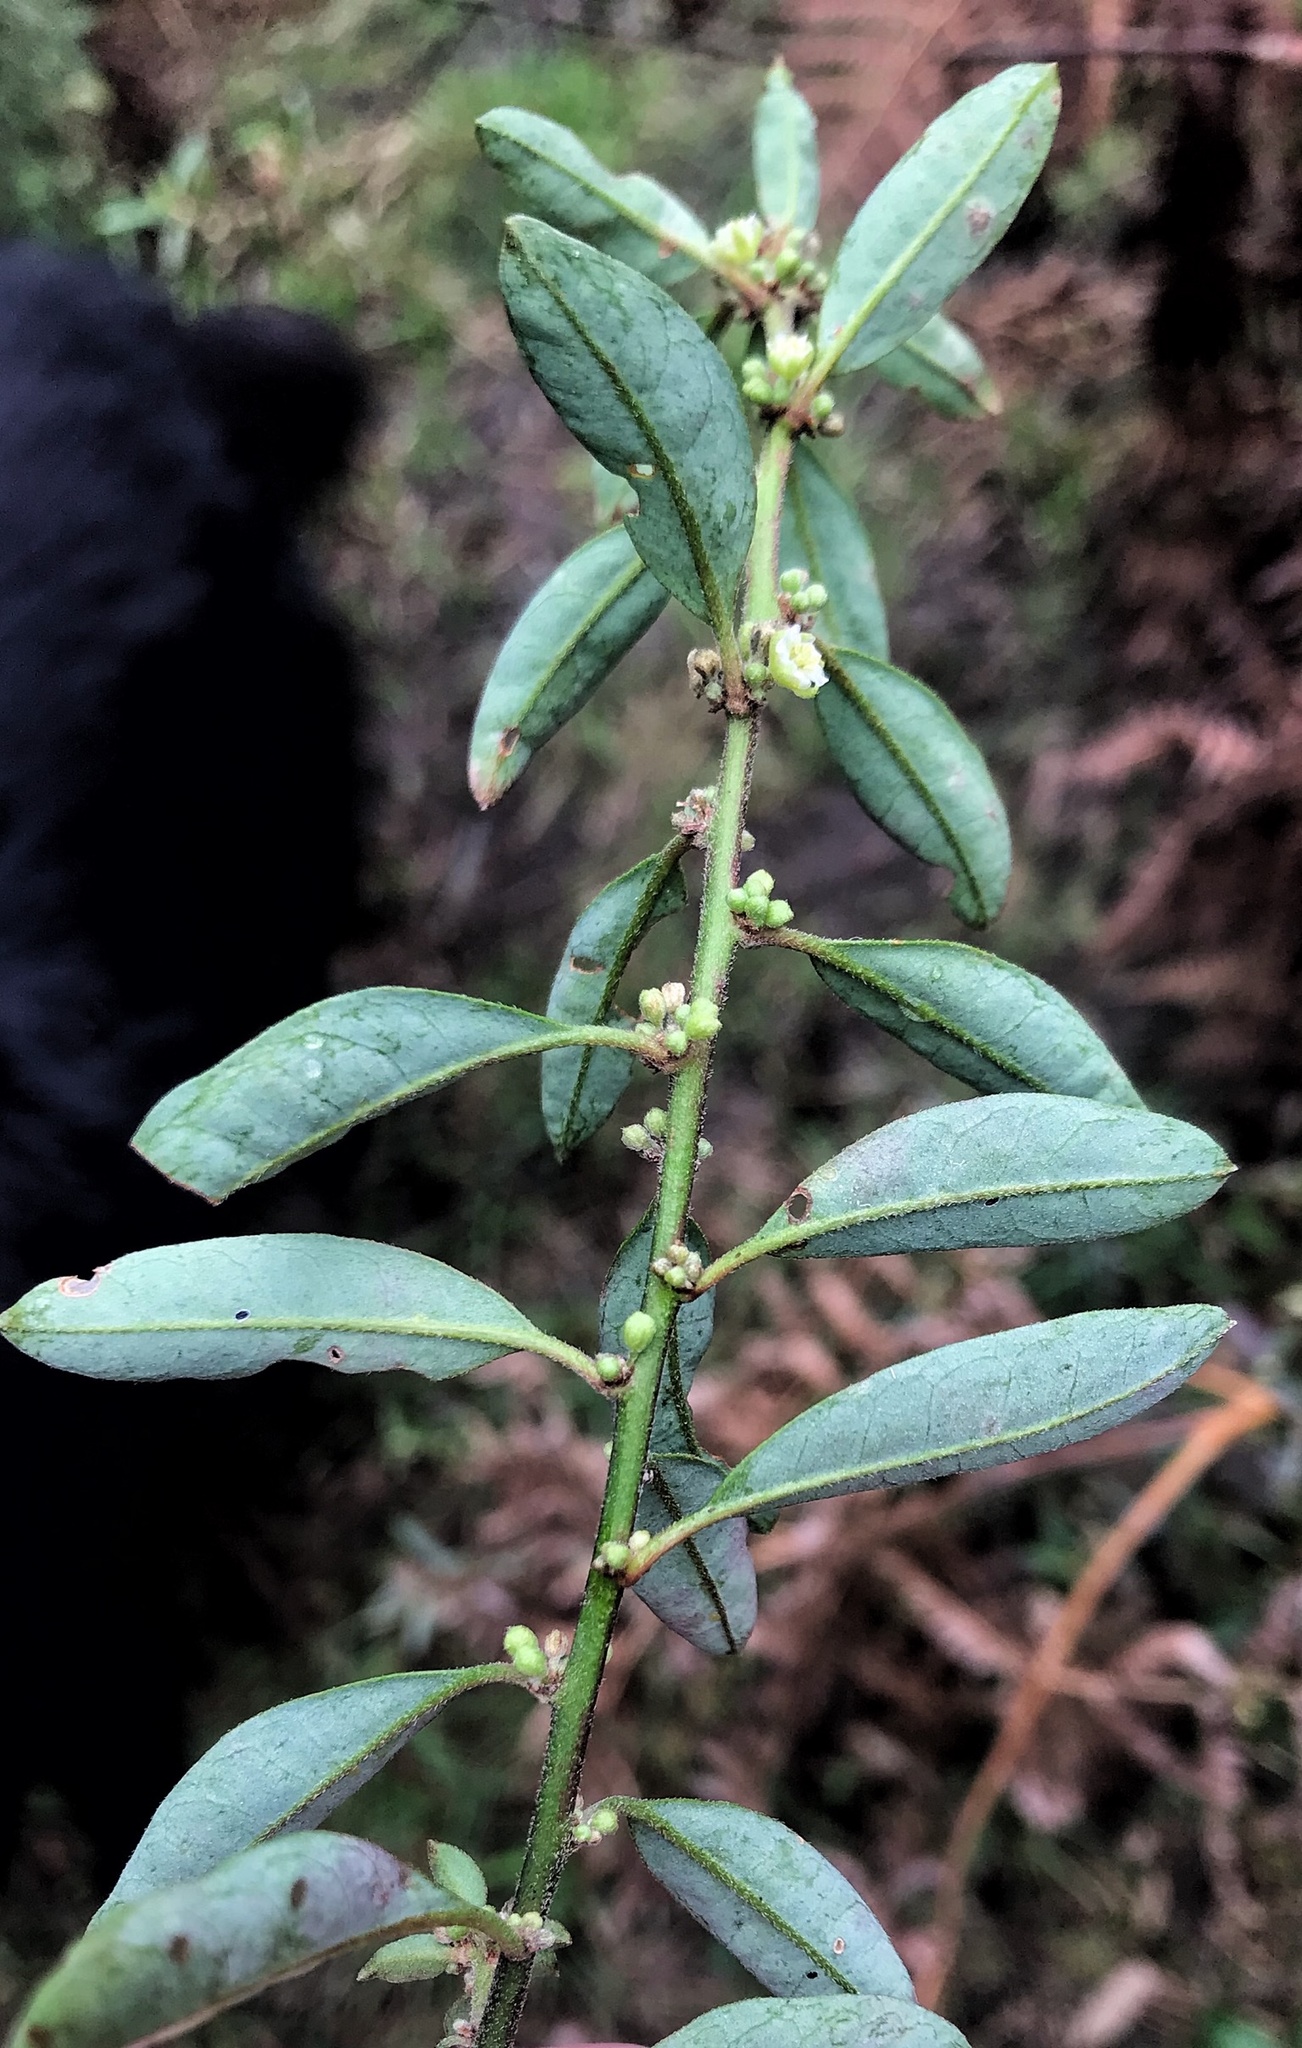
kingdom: Plantae
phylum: Tracheophyta
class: Magnoliopsida
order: Malpighiales
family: Peraceae
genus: Clutia
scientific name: Clutia affinis
